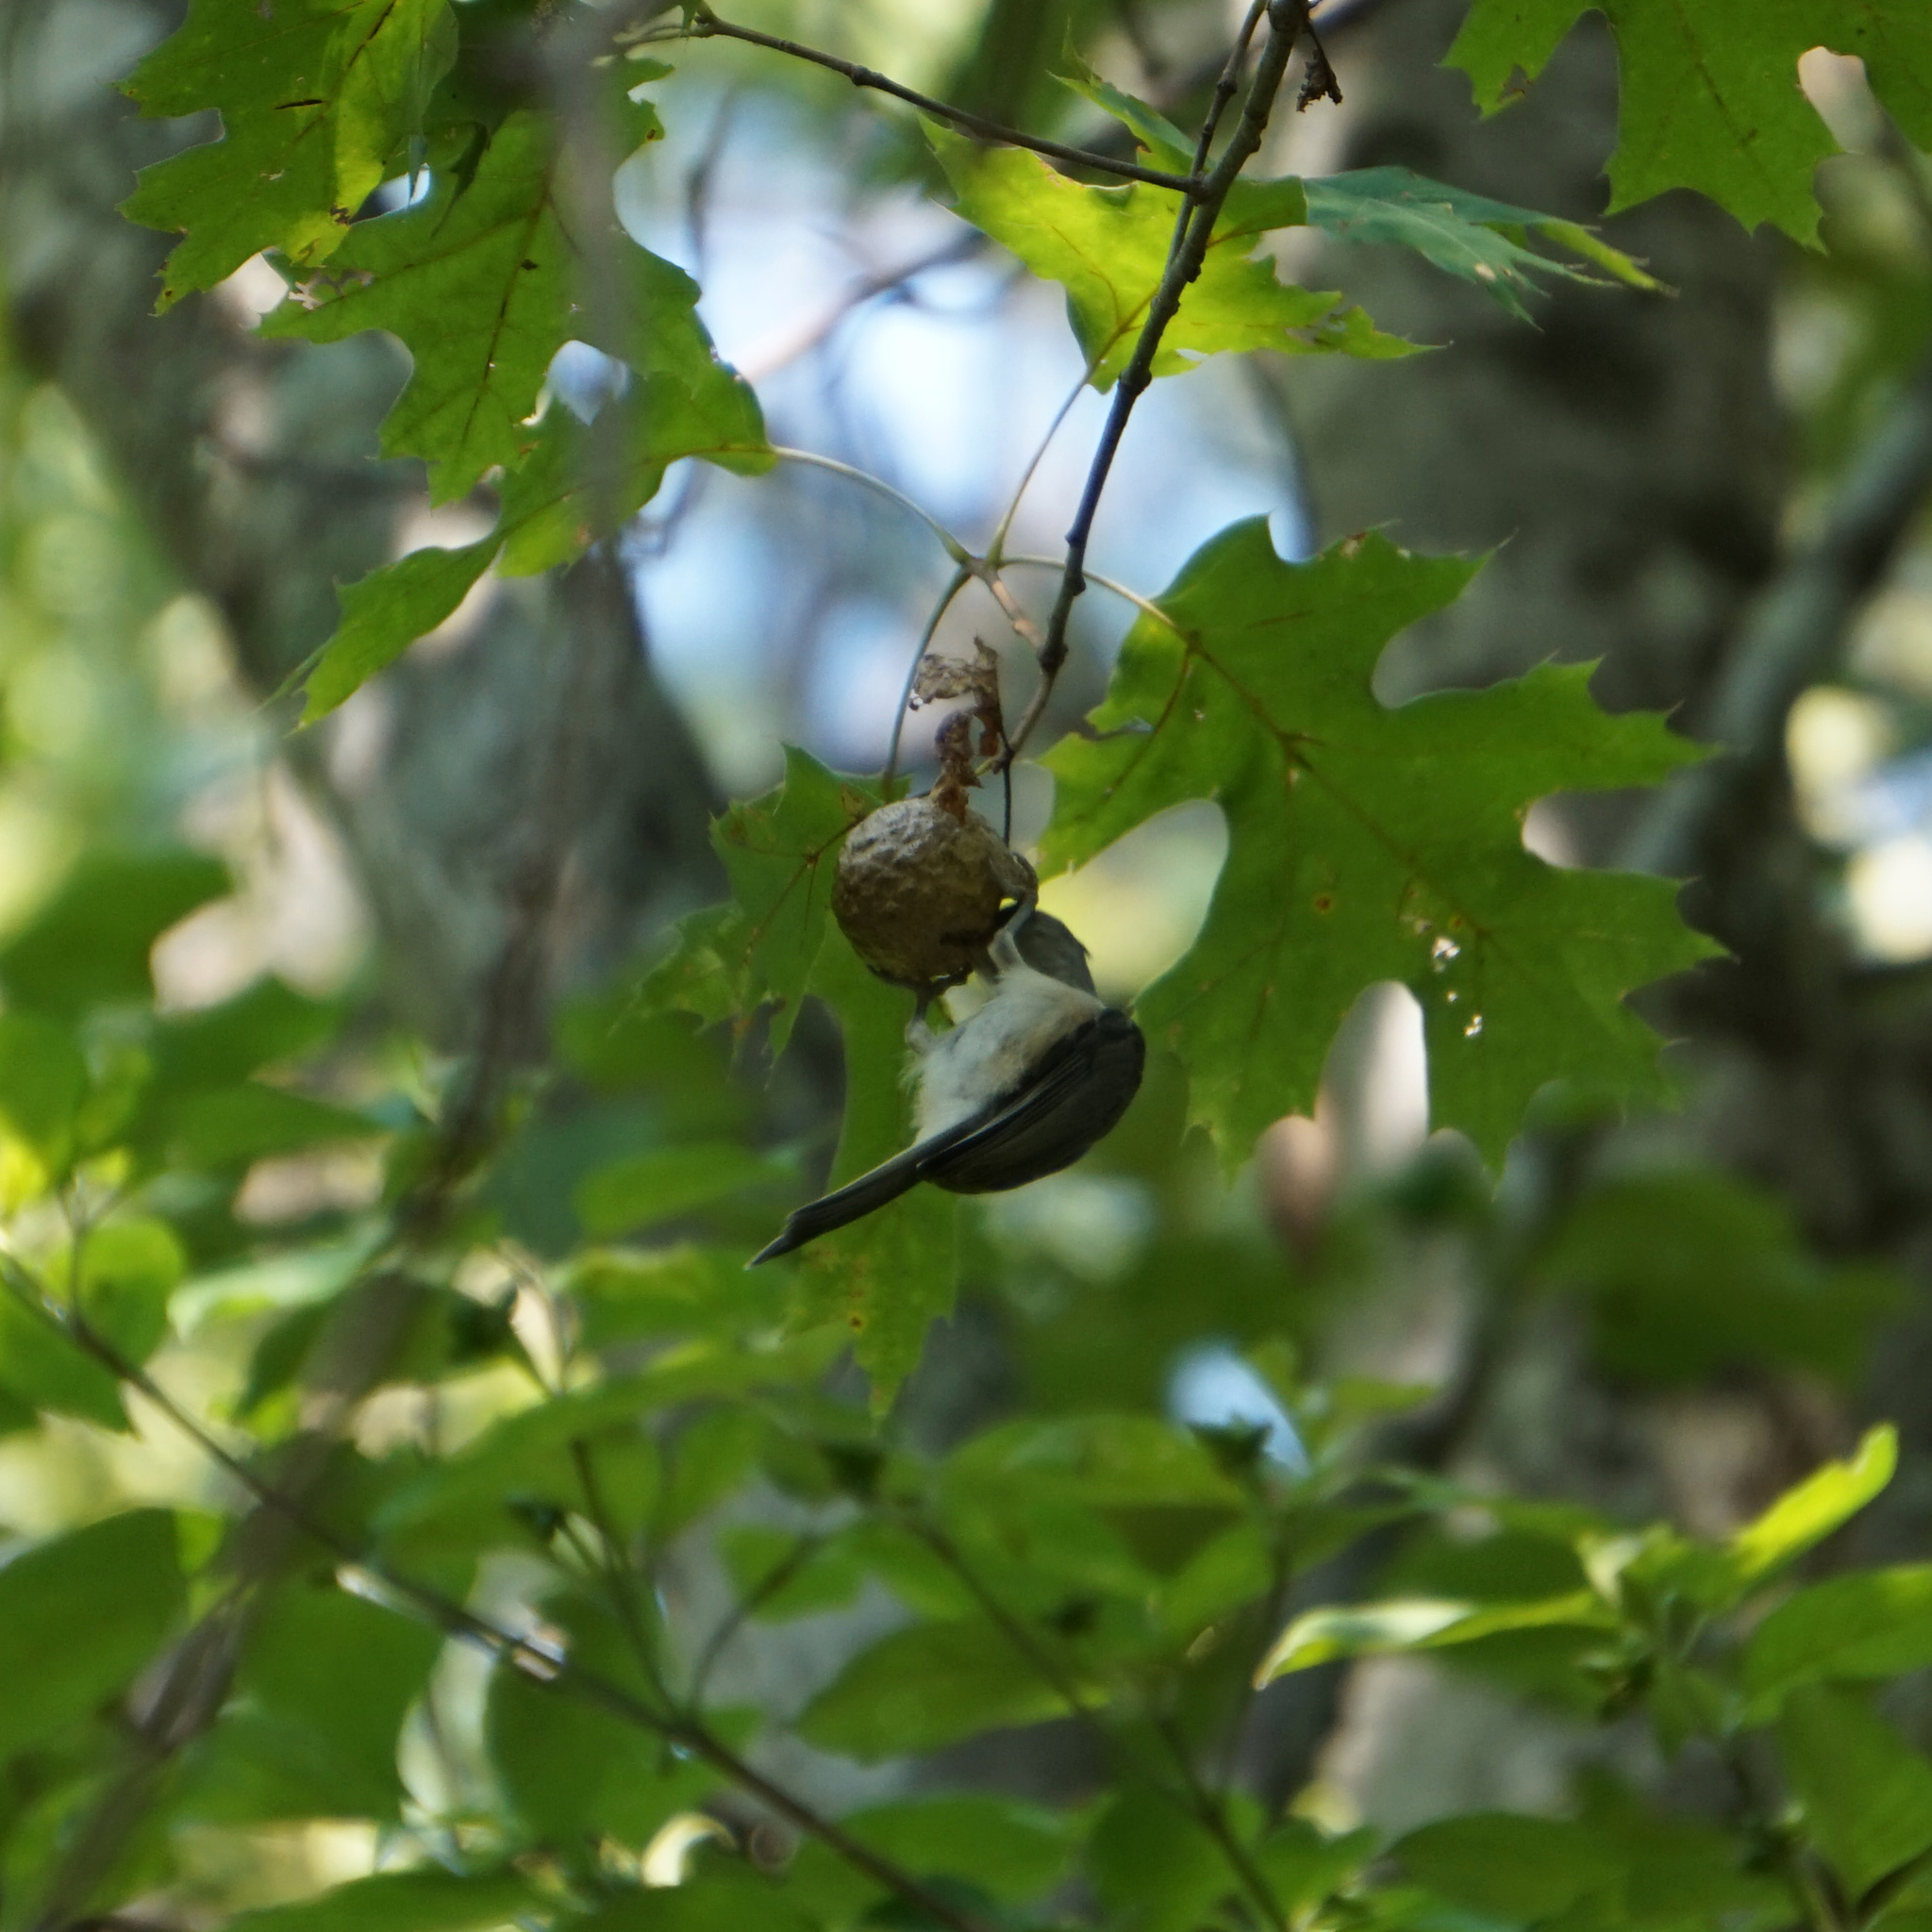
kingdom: Animalia
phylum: Chordata
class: Aves
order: Passeriformes
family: Paridae
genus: Baeolophus
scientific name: Baeolophus bicolor
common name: Tufted titmouse
